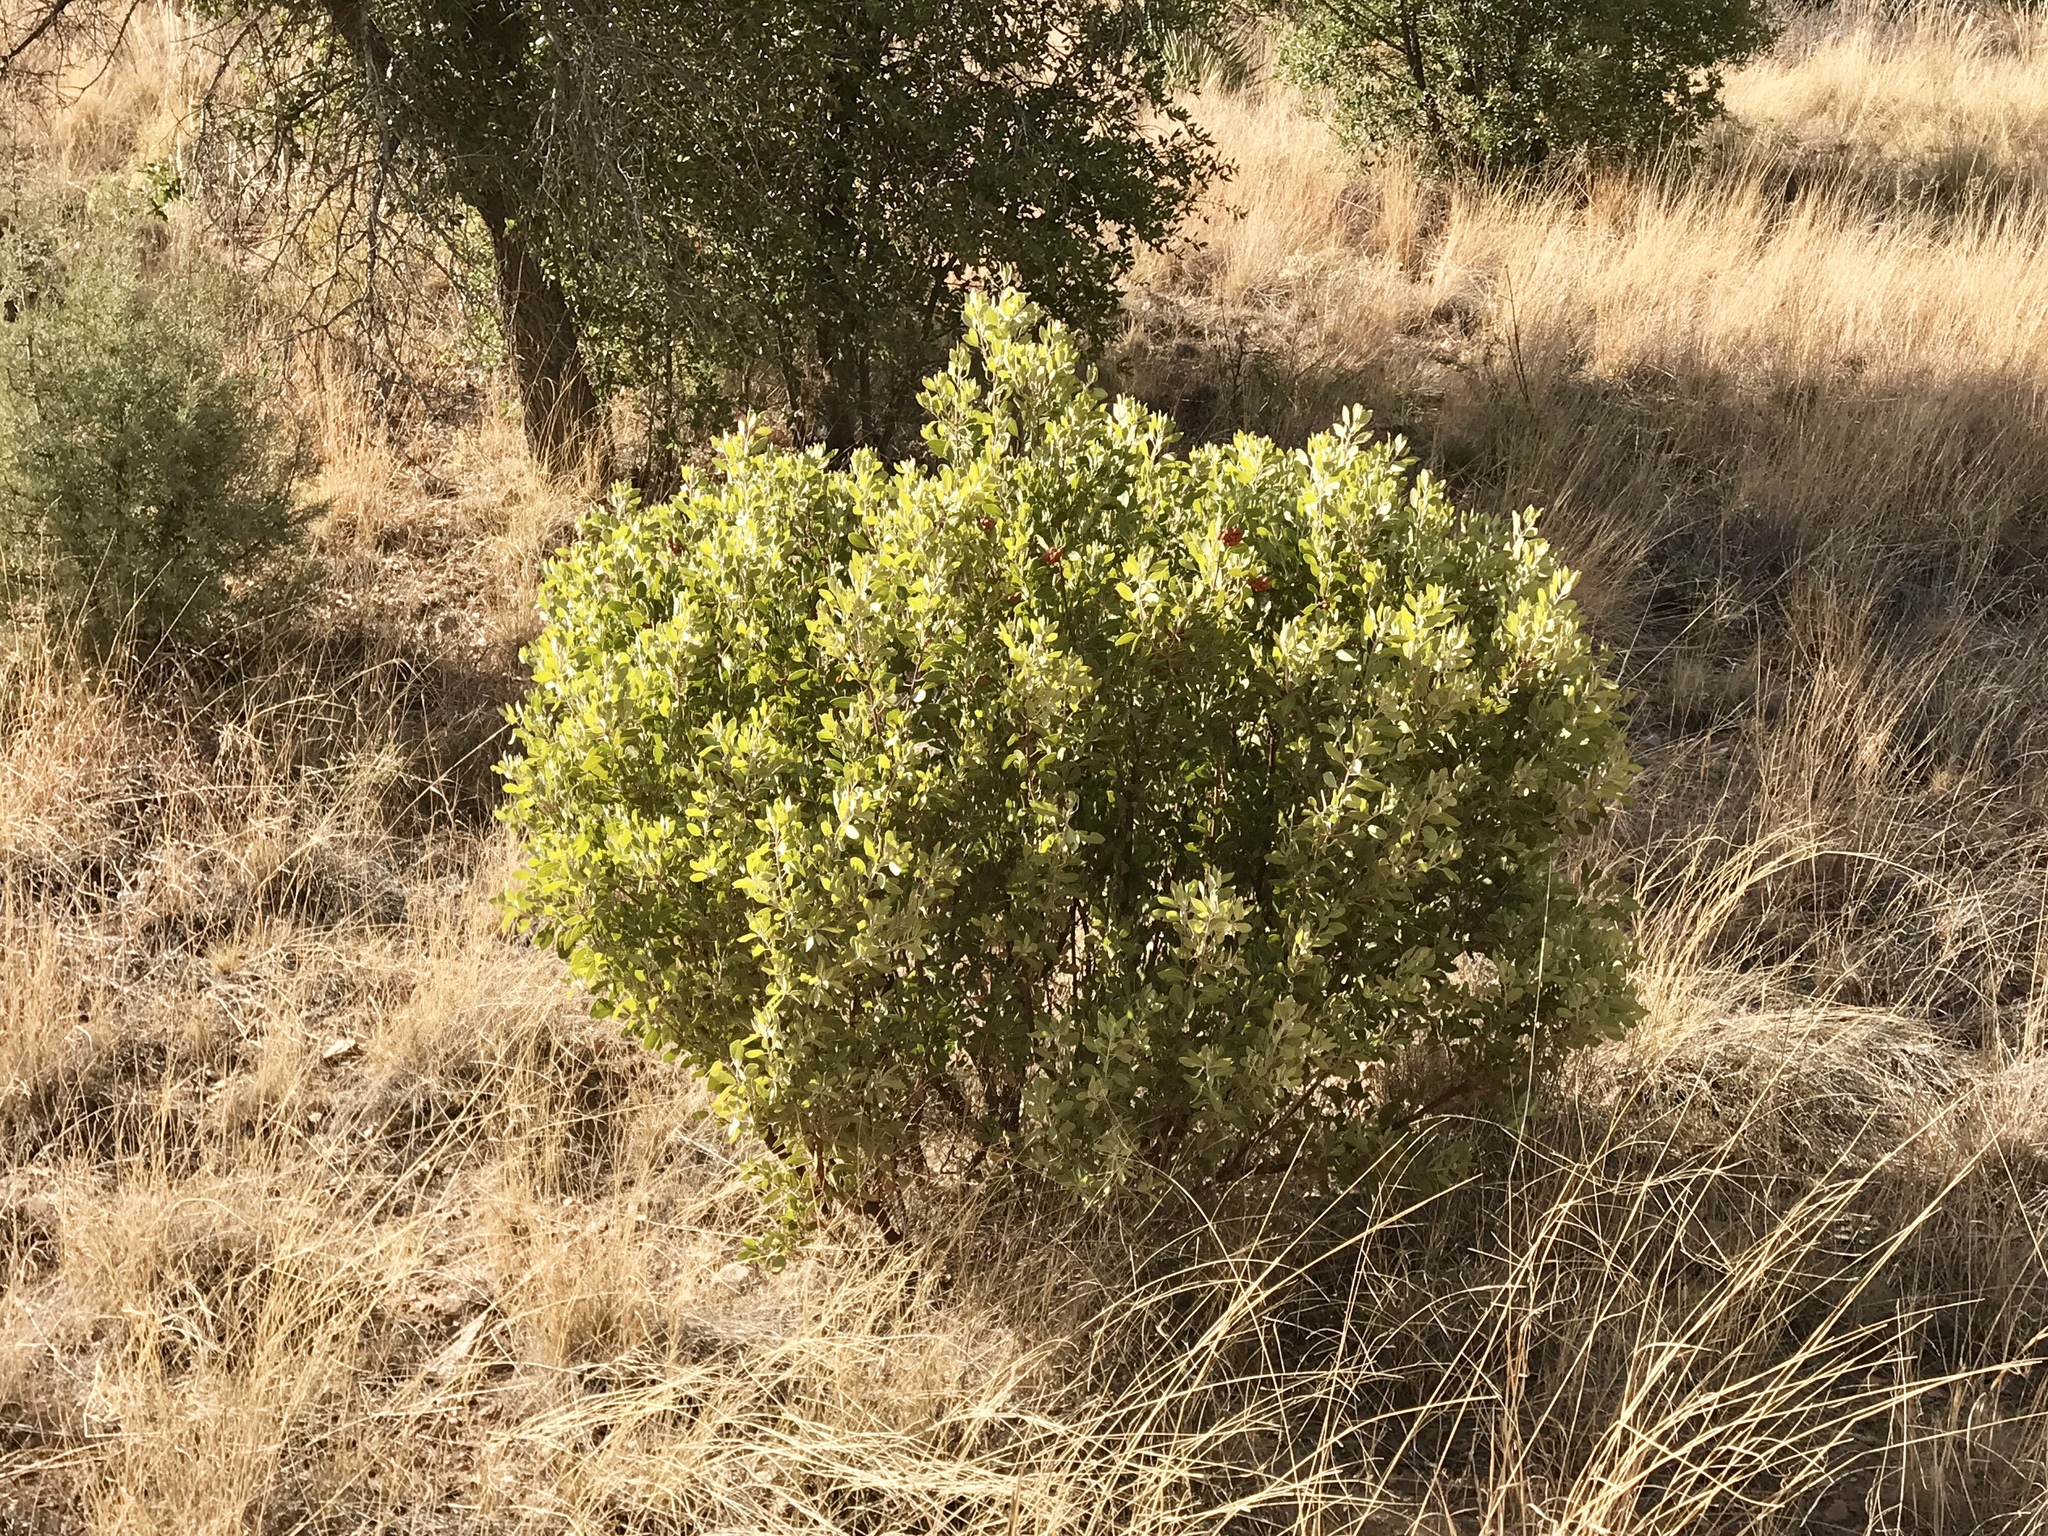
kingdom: Plantae
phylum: Tracheophyta
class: Magnoliopsida
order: Ericales
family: Ericaceae
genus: Arctostaphylos
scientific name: Arctostaphylos pungens
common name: Mexican manzanita
